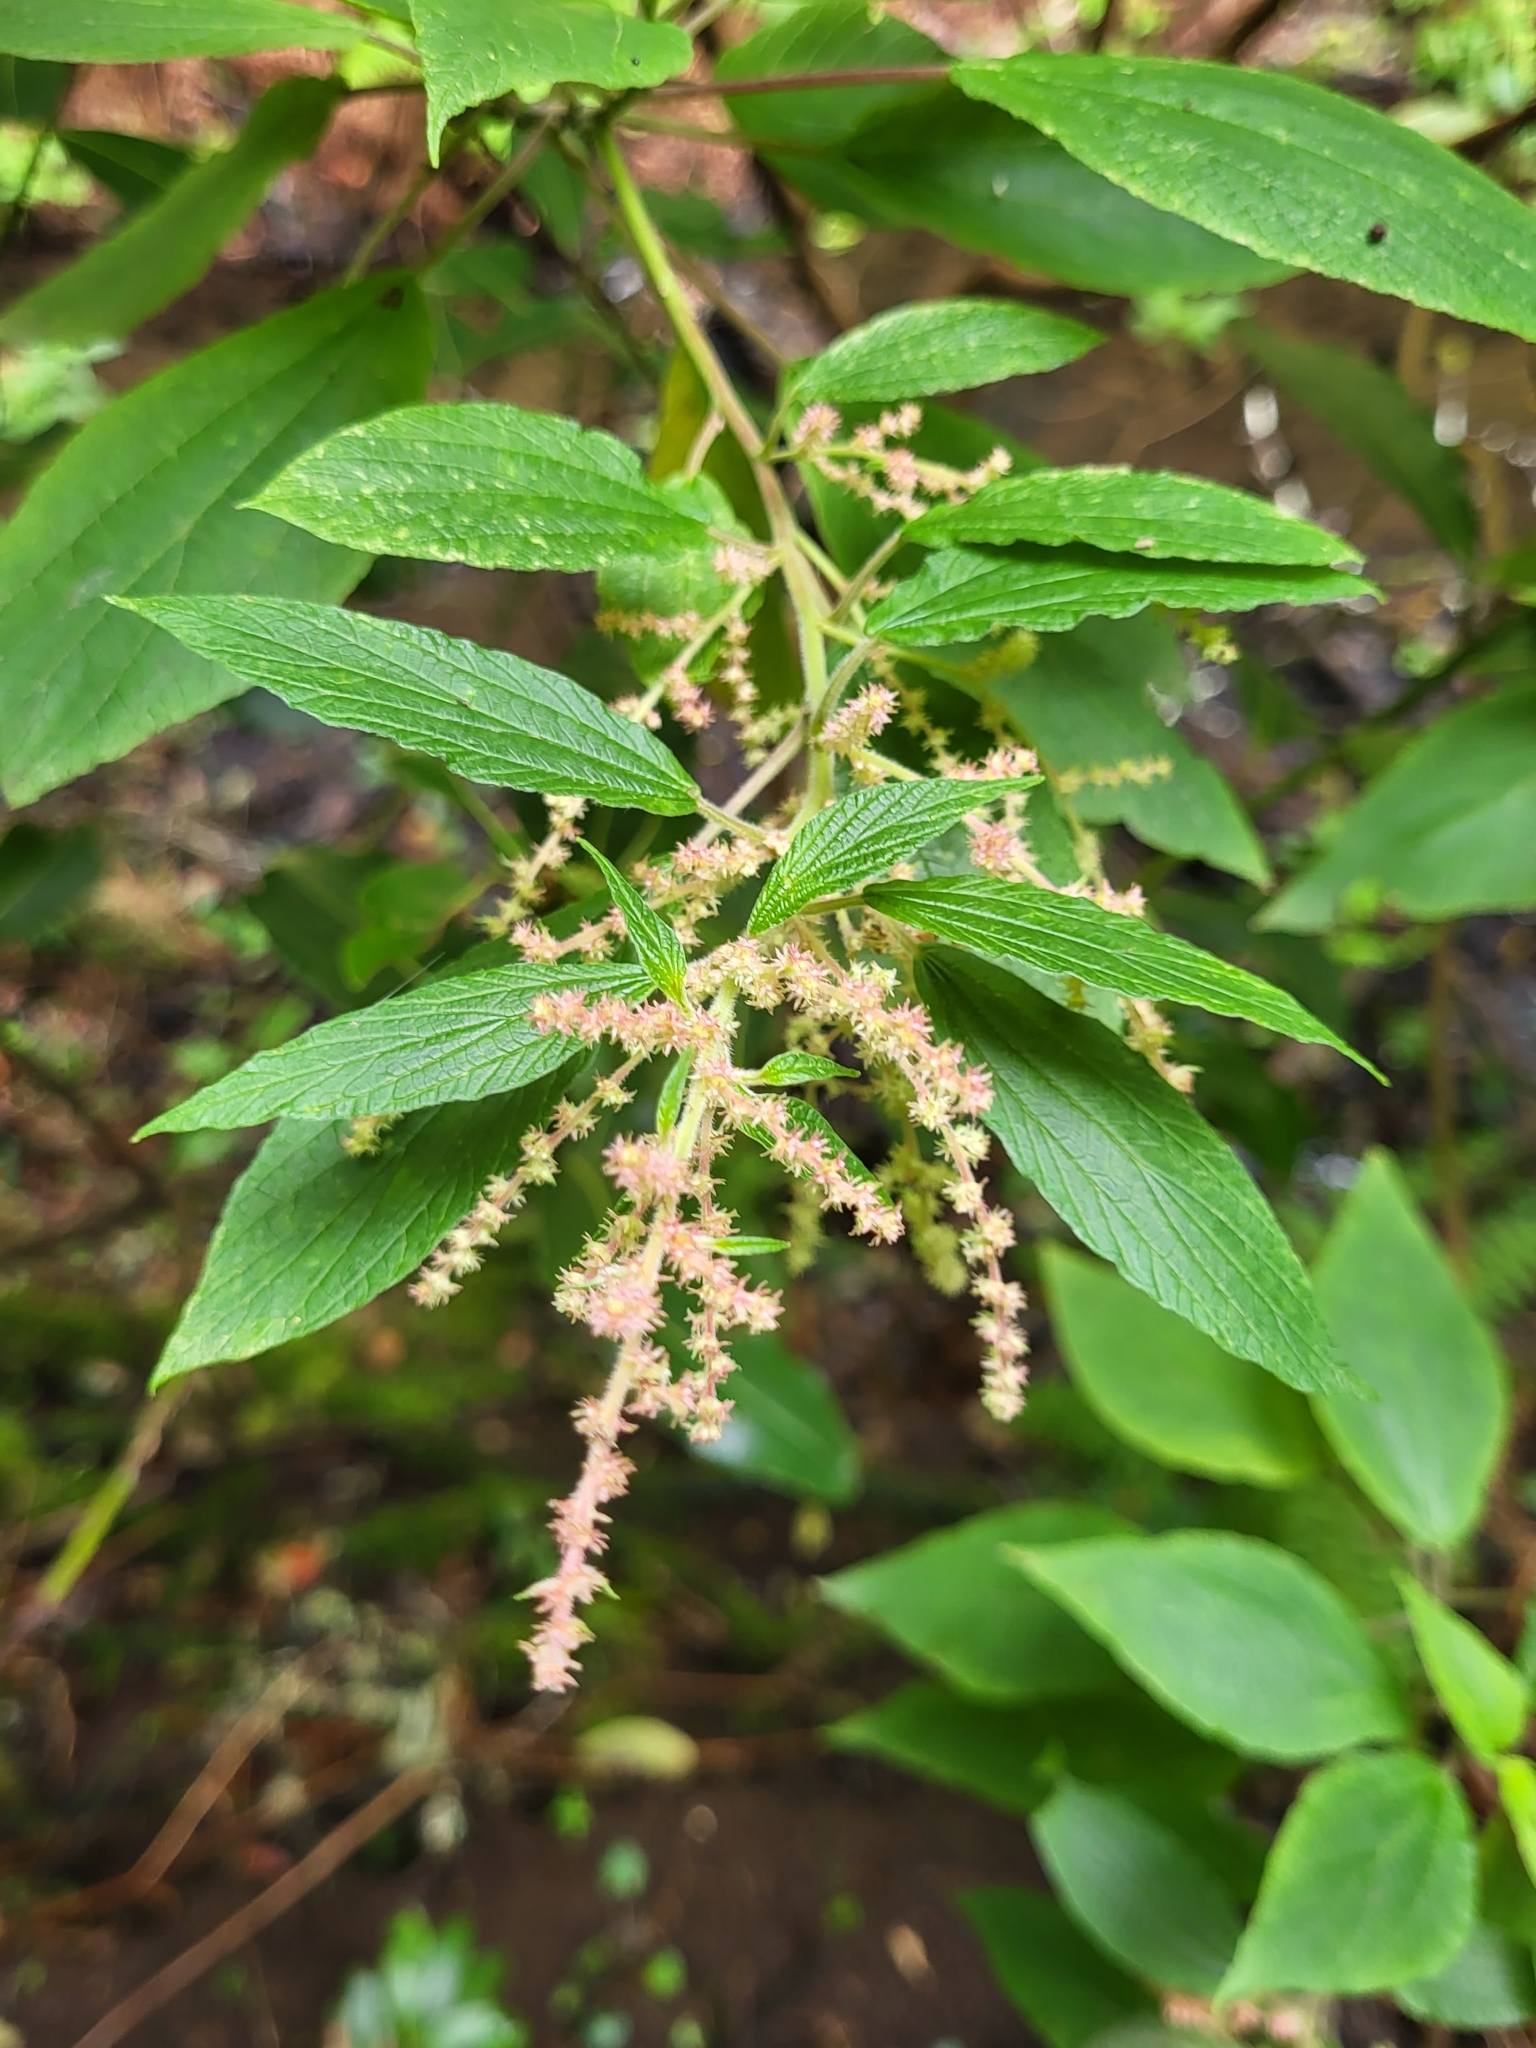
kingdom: Plantae
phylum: Tracheophyta
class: Magnoliopsida
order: Rosales
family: Urticaceae
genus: Gesnouinia
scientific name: Gesnouinia arborea
